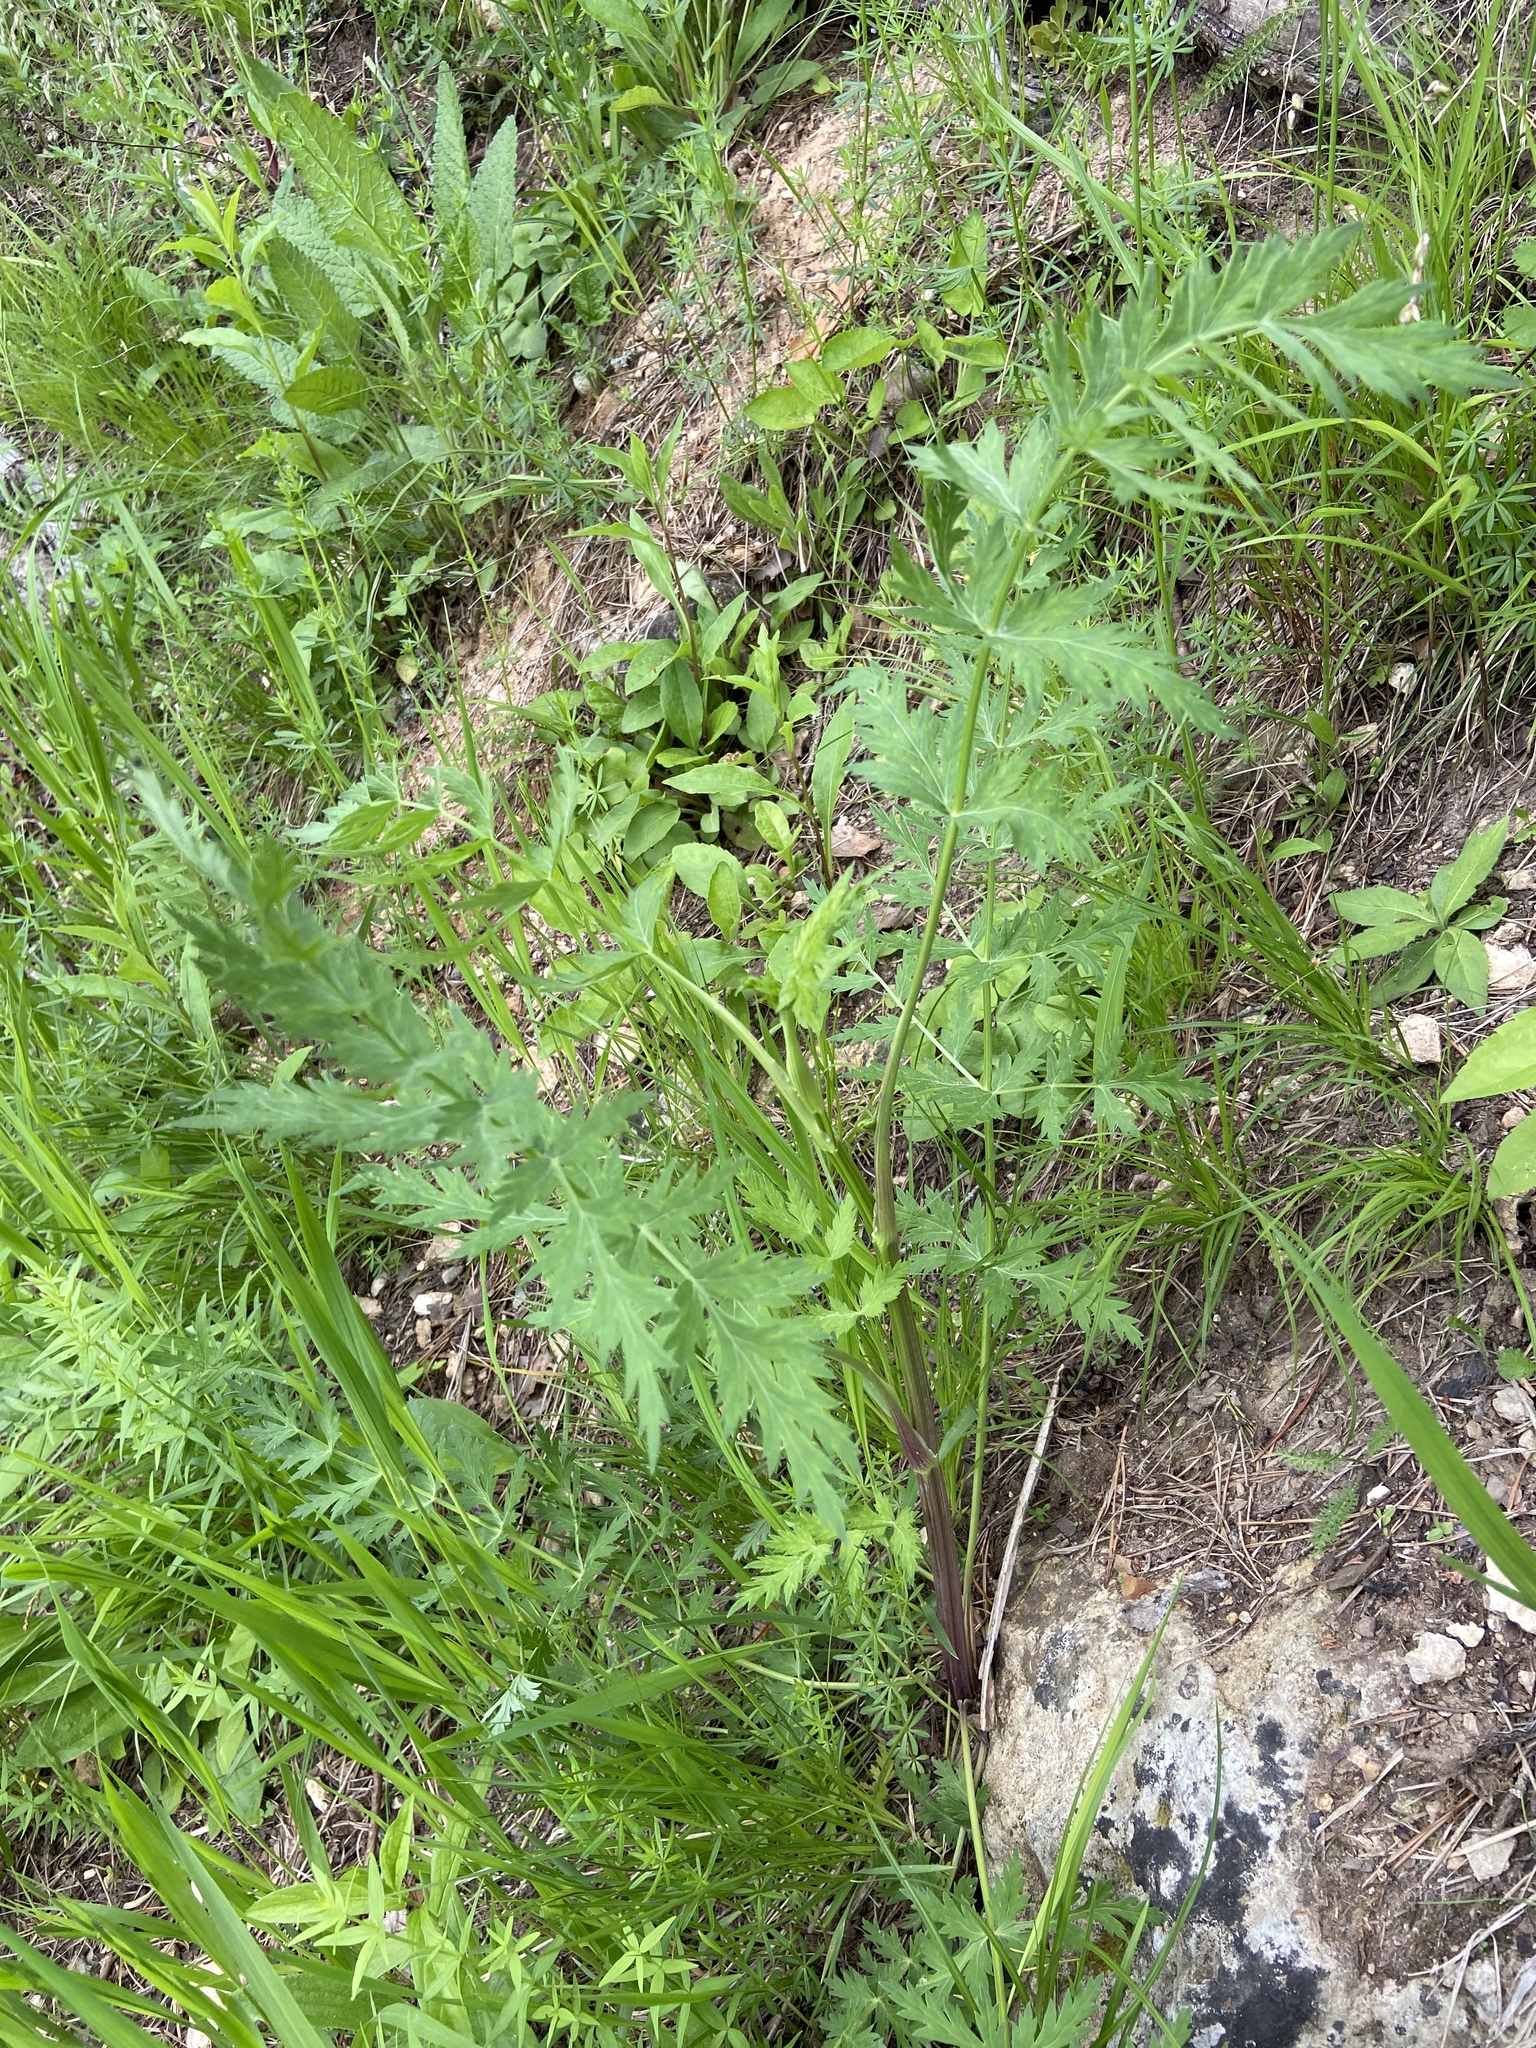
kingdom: Plantae
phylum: Tracheophyta
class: Magnoliopsida
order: Apiales
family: Apiaceae
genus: Seseli
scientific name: Seseli libanotis
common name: Mooncarrot
